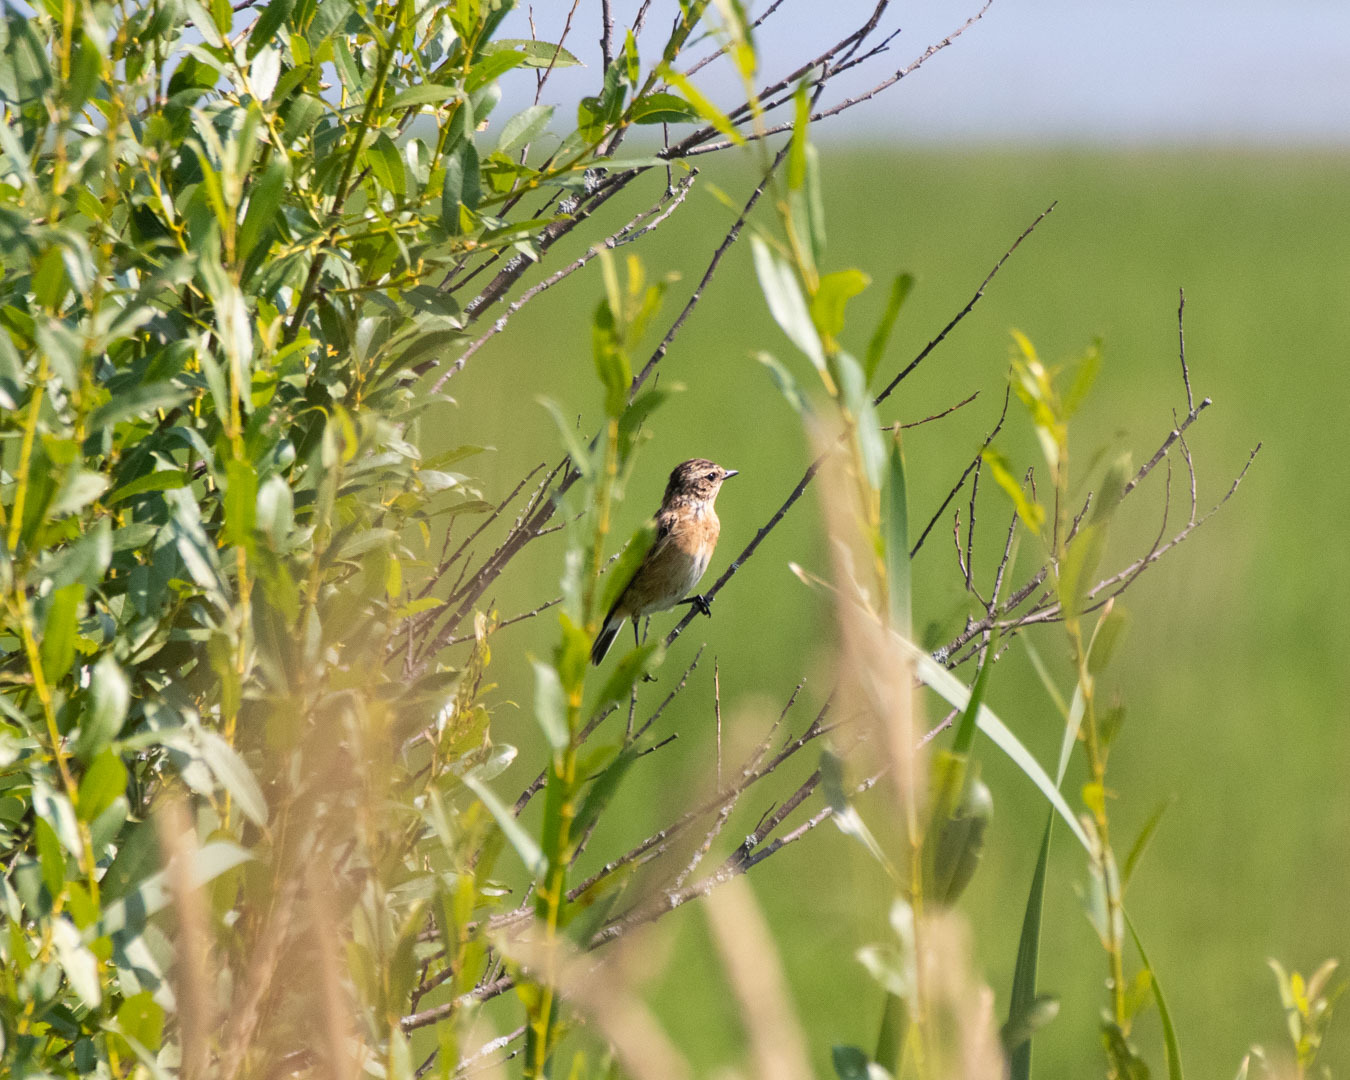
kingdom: Animalia
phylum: Chordata
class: Aves
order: Passeriformes
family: Muscicapidae
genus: Saxicola
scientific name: Saxicola rubetra
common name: Whinchat
